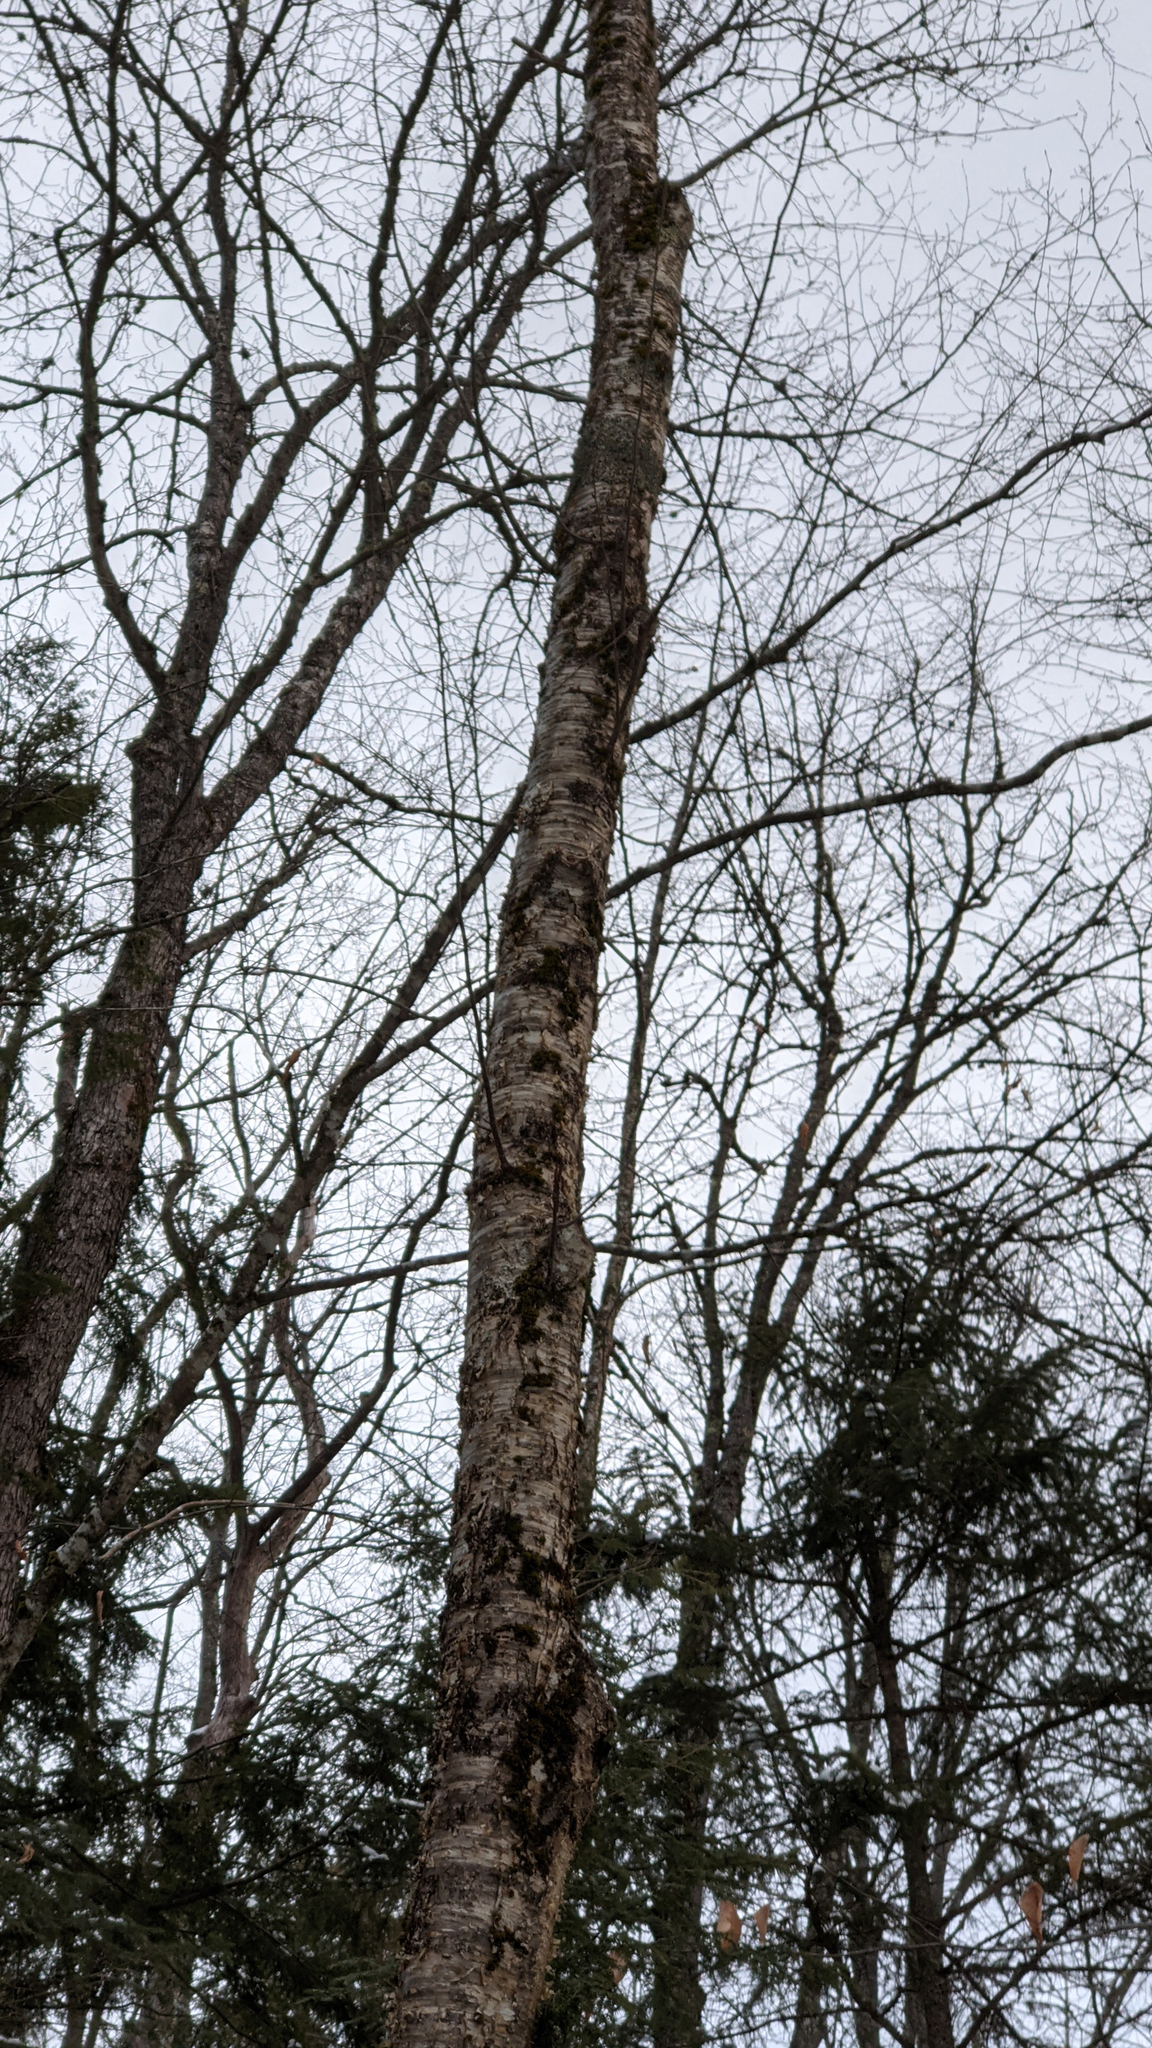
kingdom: Plantae
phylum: Tracheophyta
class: Magnoliopsida
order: Fagales
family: Betulaceae
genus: Betula
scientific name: Betula alleghaniensis
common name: Yellow birch
